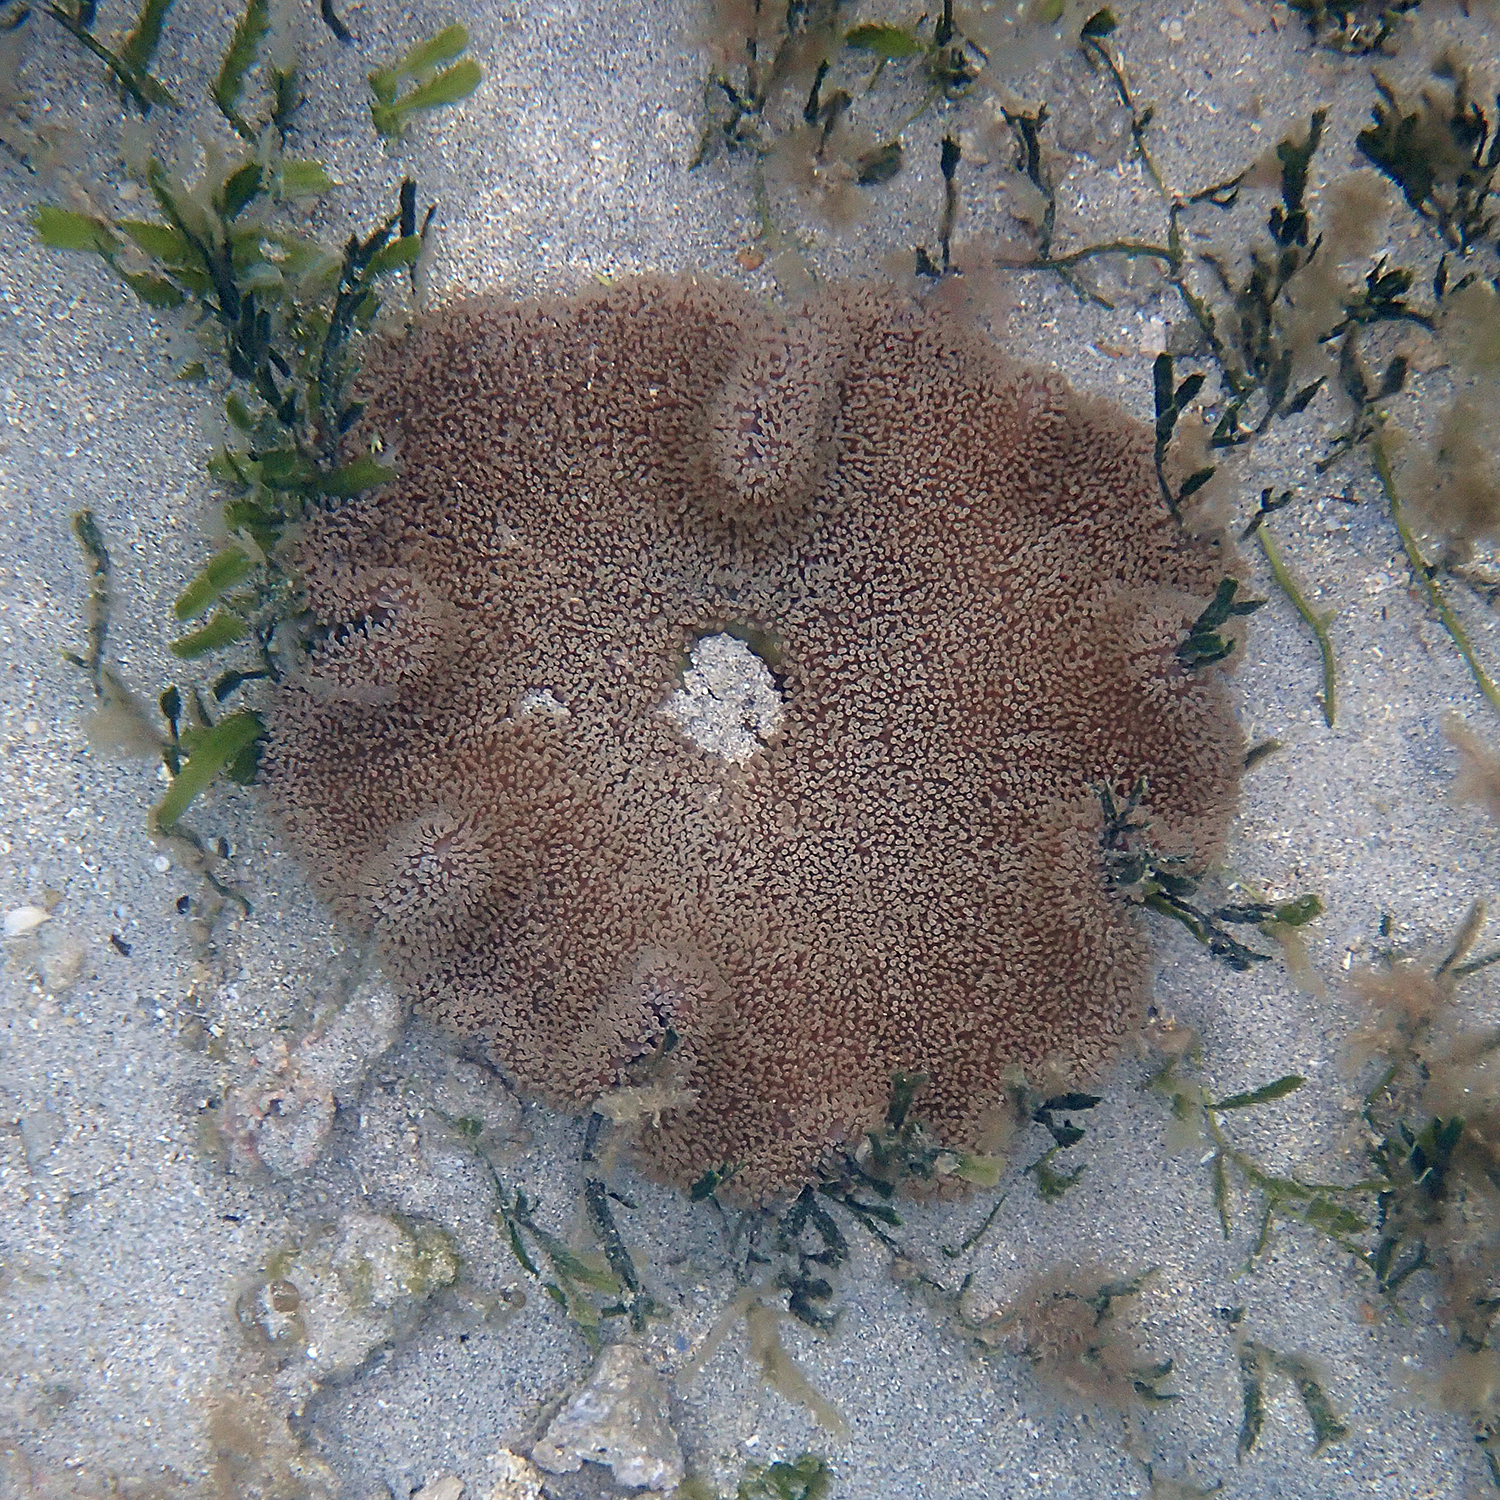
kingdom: Animalia
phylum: Cnidaria
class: Anthozoa
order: Actiniaria
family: Stichodactylidae
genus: Stichodactyla
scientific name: Stichodactyla haddoni
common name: Haddon's sea anemone
